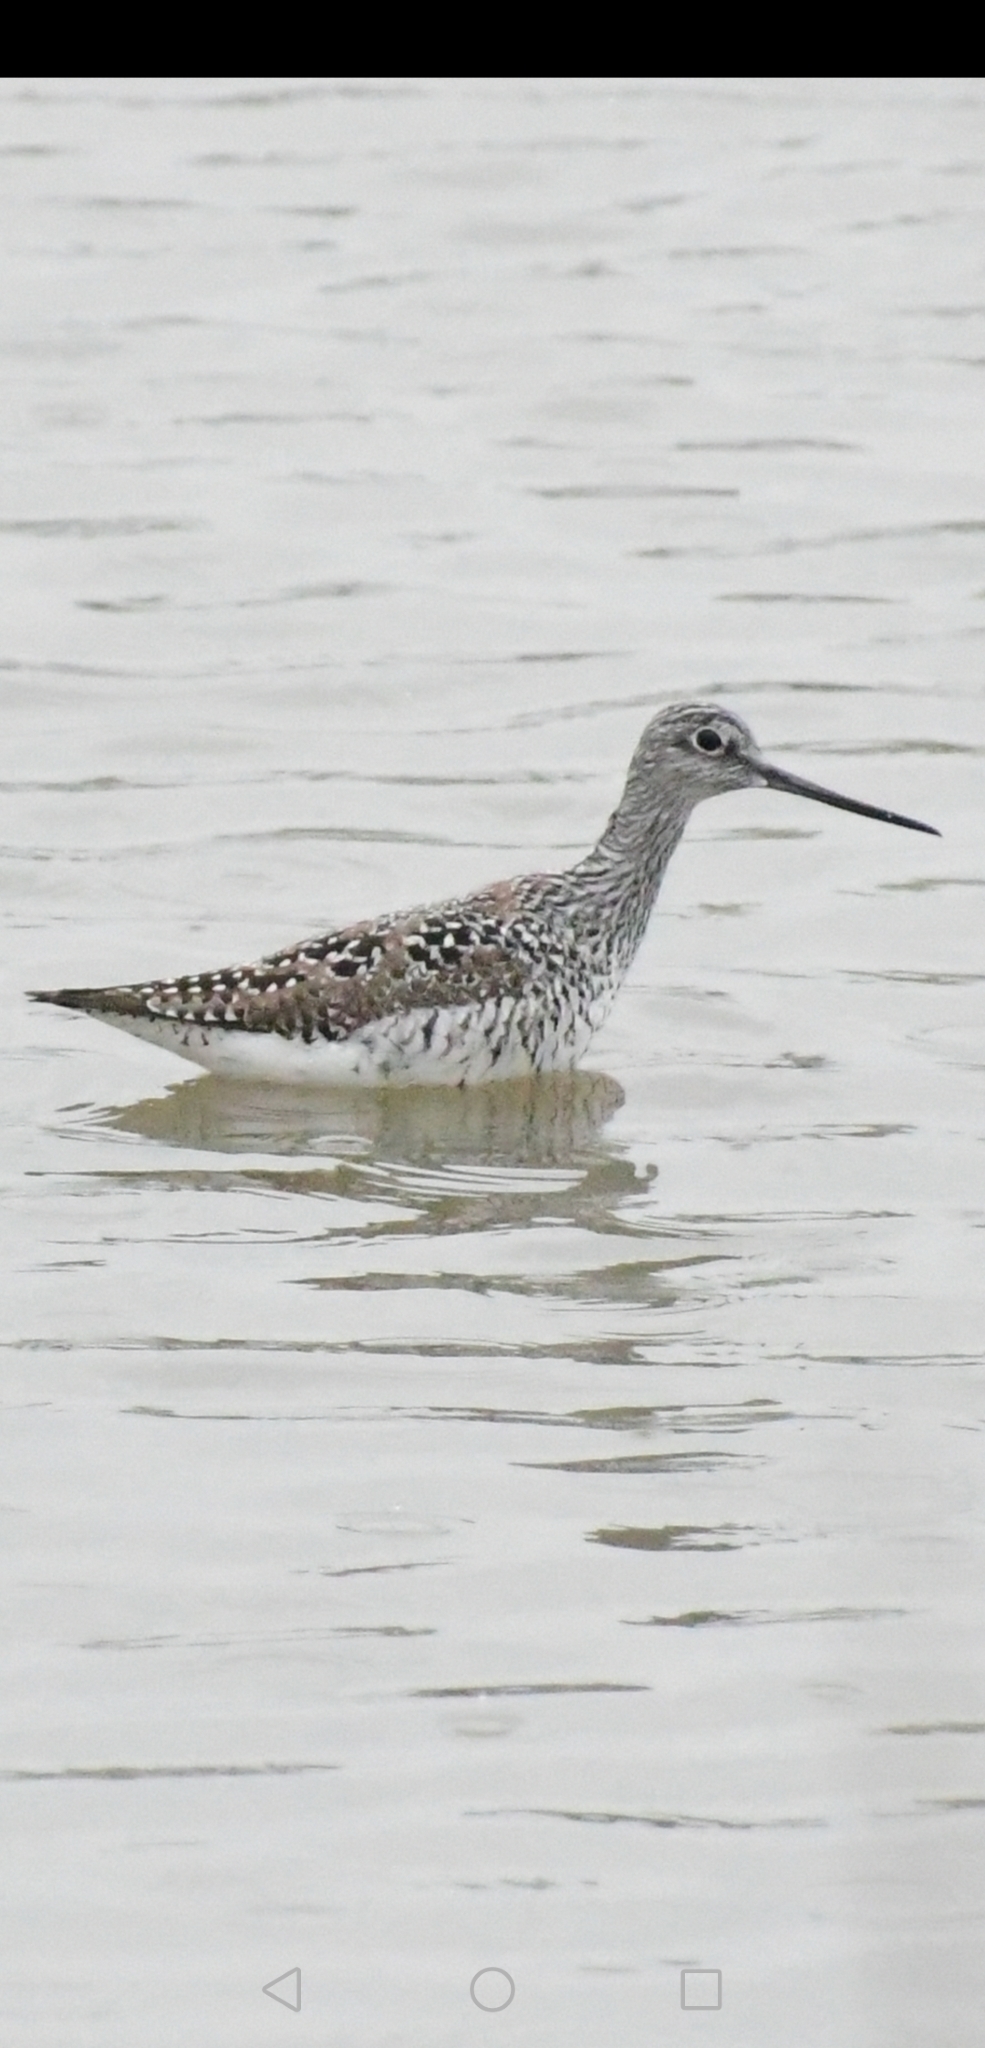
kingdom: Animalia
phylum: Chordata
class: Aves
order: Charadriiformes
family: Scolopacidae
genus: Tringa
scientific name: Tringa melanoleuca
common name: Greater yellowlegs
